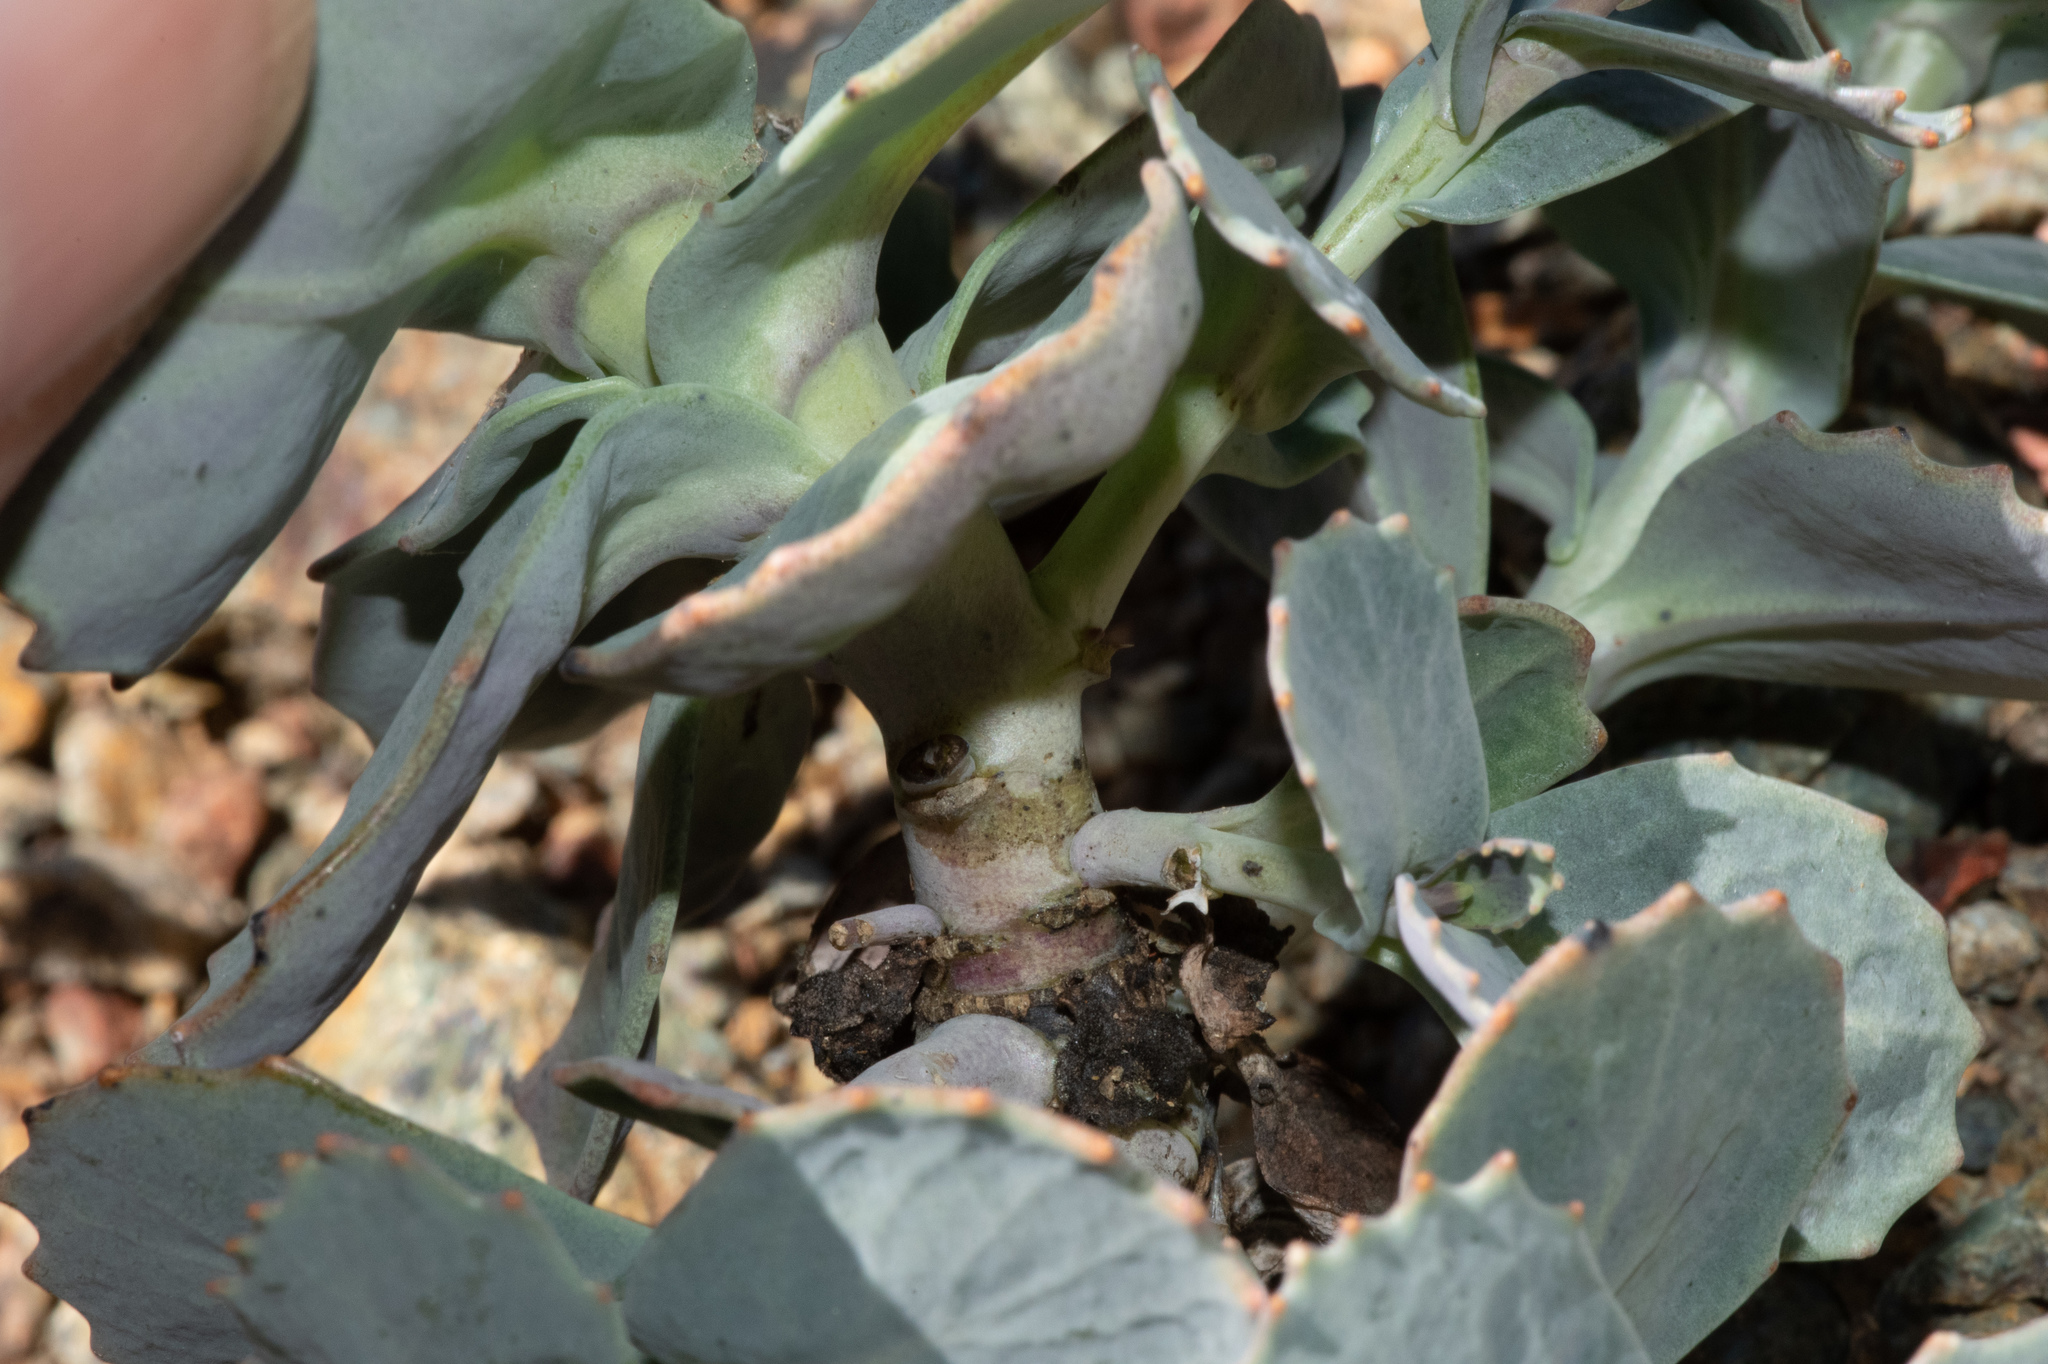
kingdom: Plantae
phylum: Tracheophyta
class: Magnoliopsida
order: Brassicales
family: Brassicaceae
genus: Streptanthus
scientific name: Streptanthus brachiatus
